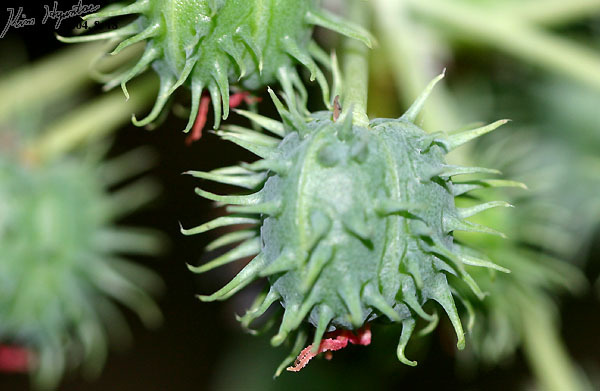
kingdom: Plantae
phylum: Tracheophyta
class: Magnoliopsida
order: Malpighiales
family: Euphorbiaceae
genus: Ricinus
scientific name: Ricinus communis
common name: Castor-oil-plant
